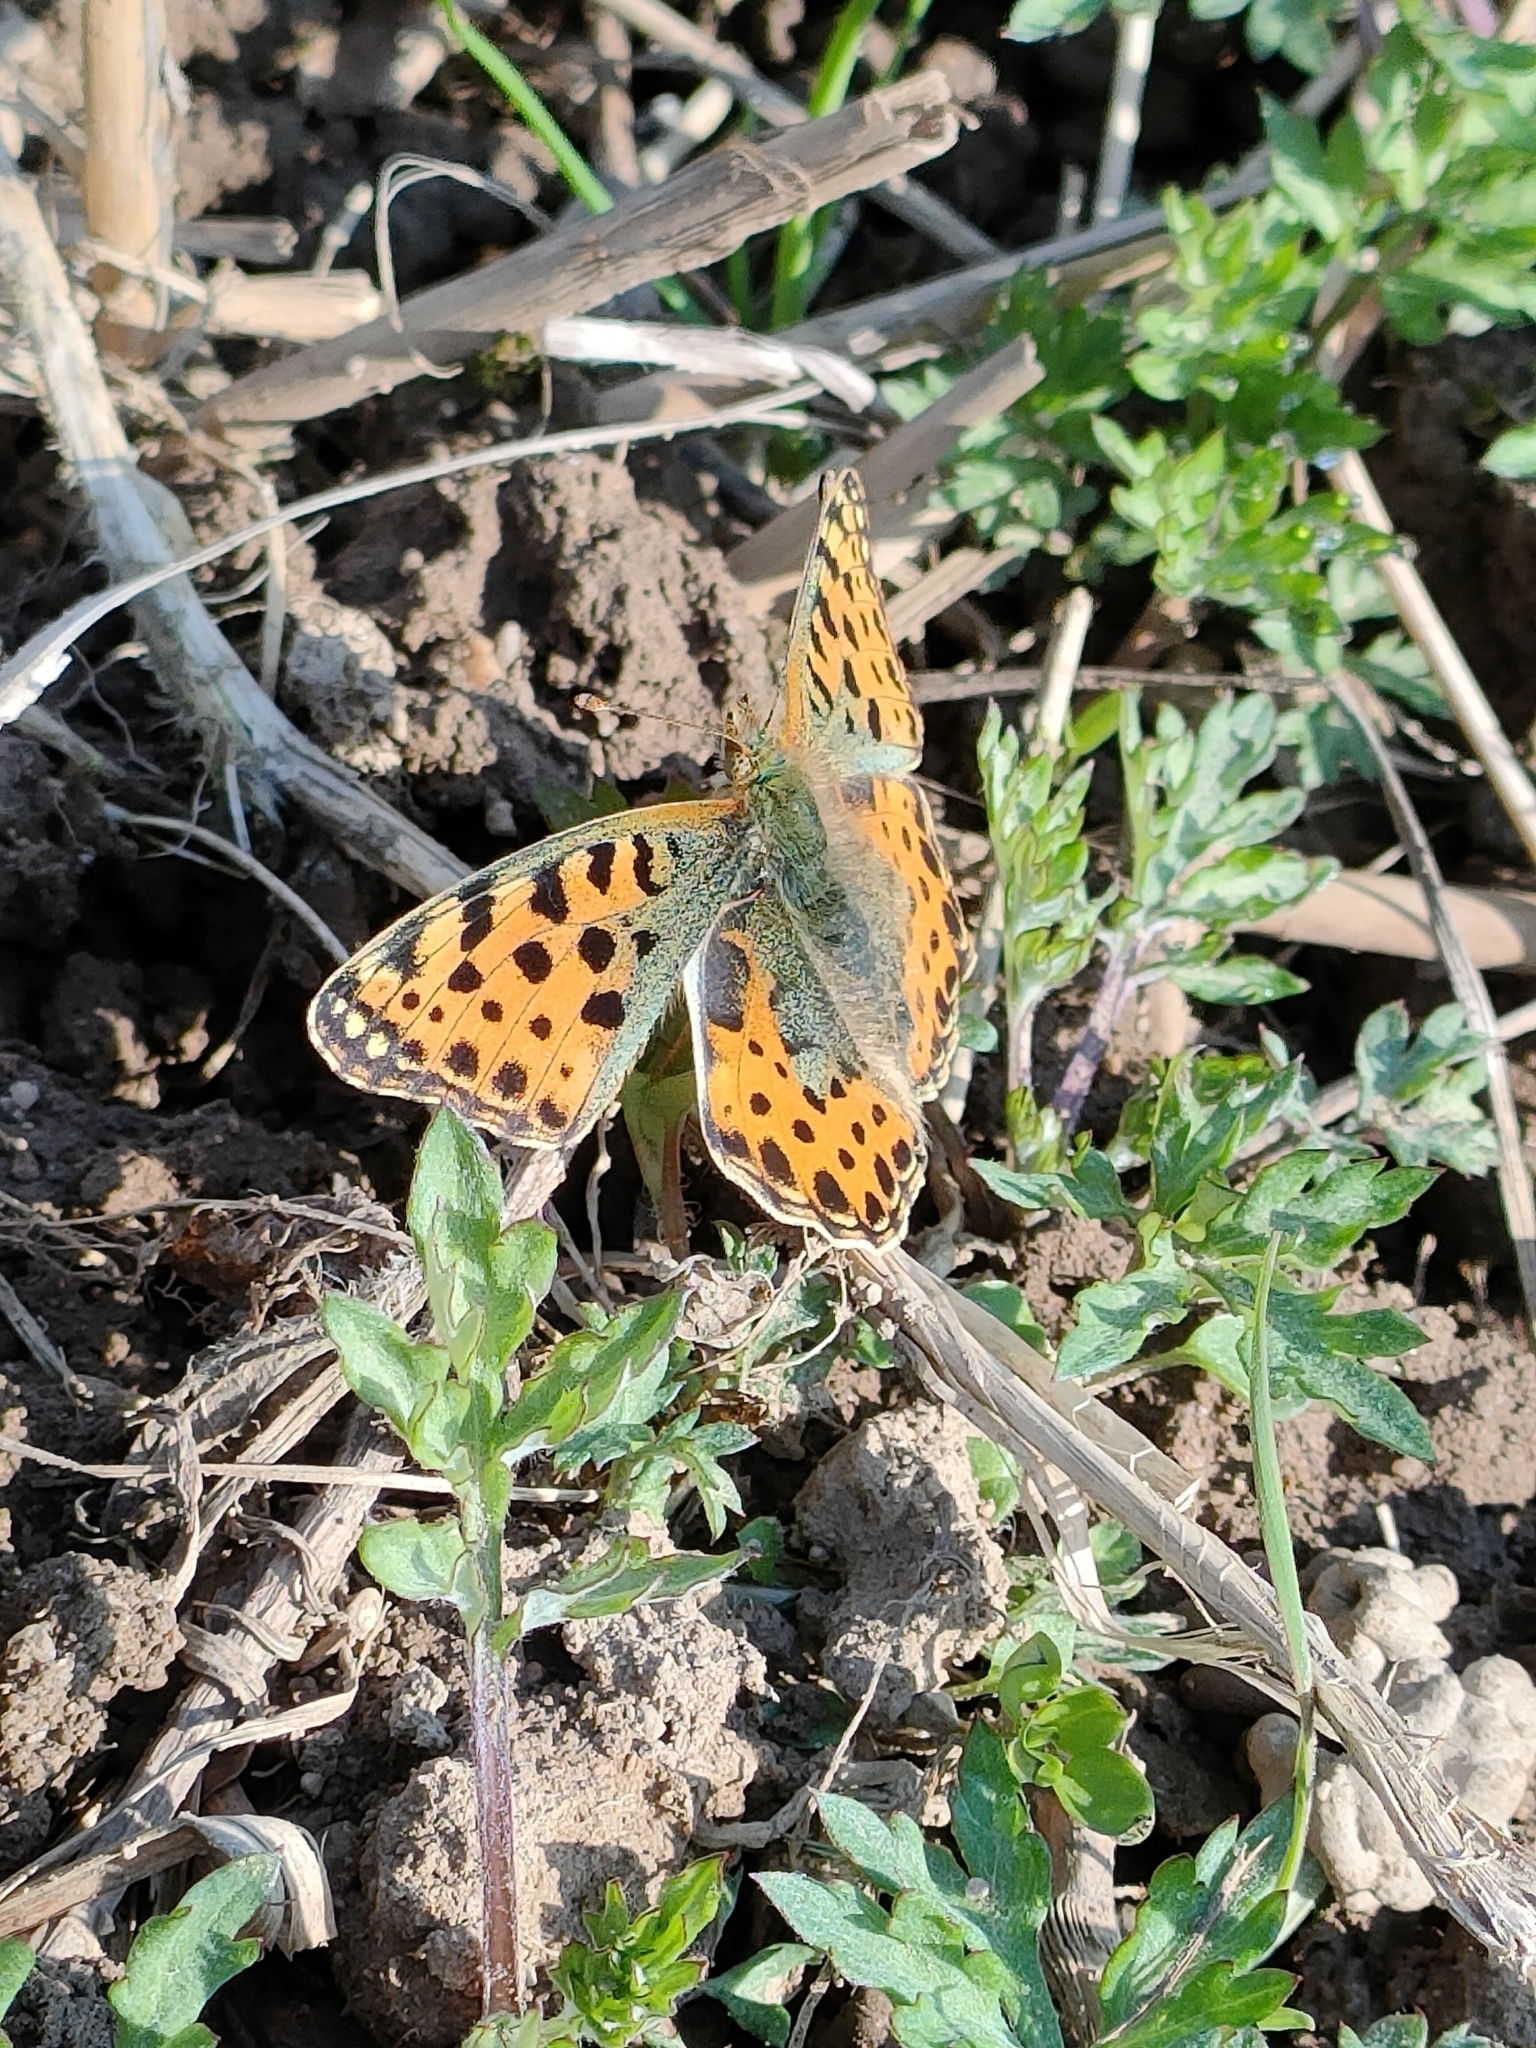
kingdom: Animalia
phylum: Arthropoda
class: Insecta
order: Lepidoptera
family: Nymphalidae
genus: Issoria
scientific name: Issoria lathonia
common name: Queen of spain fritillary
